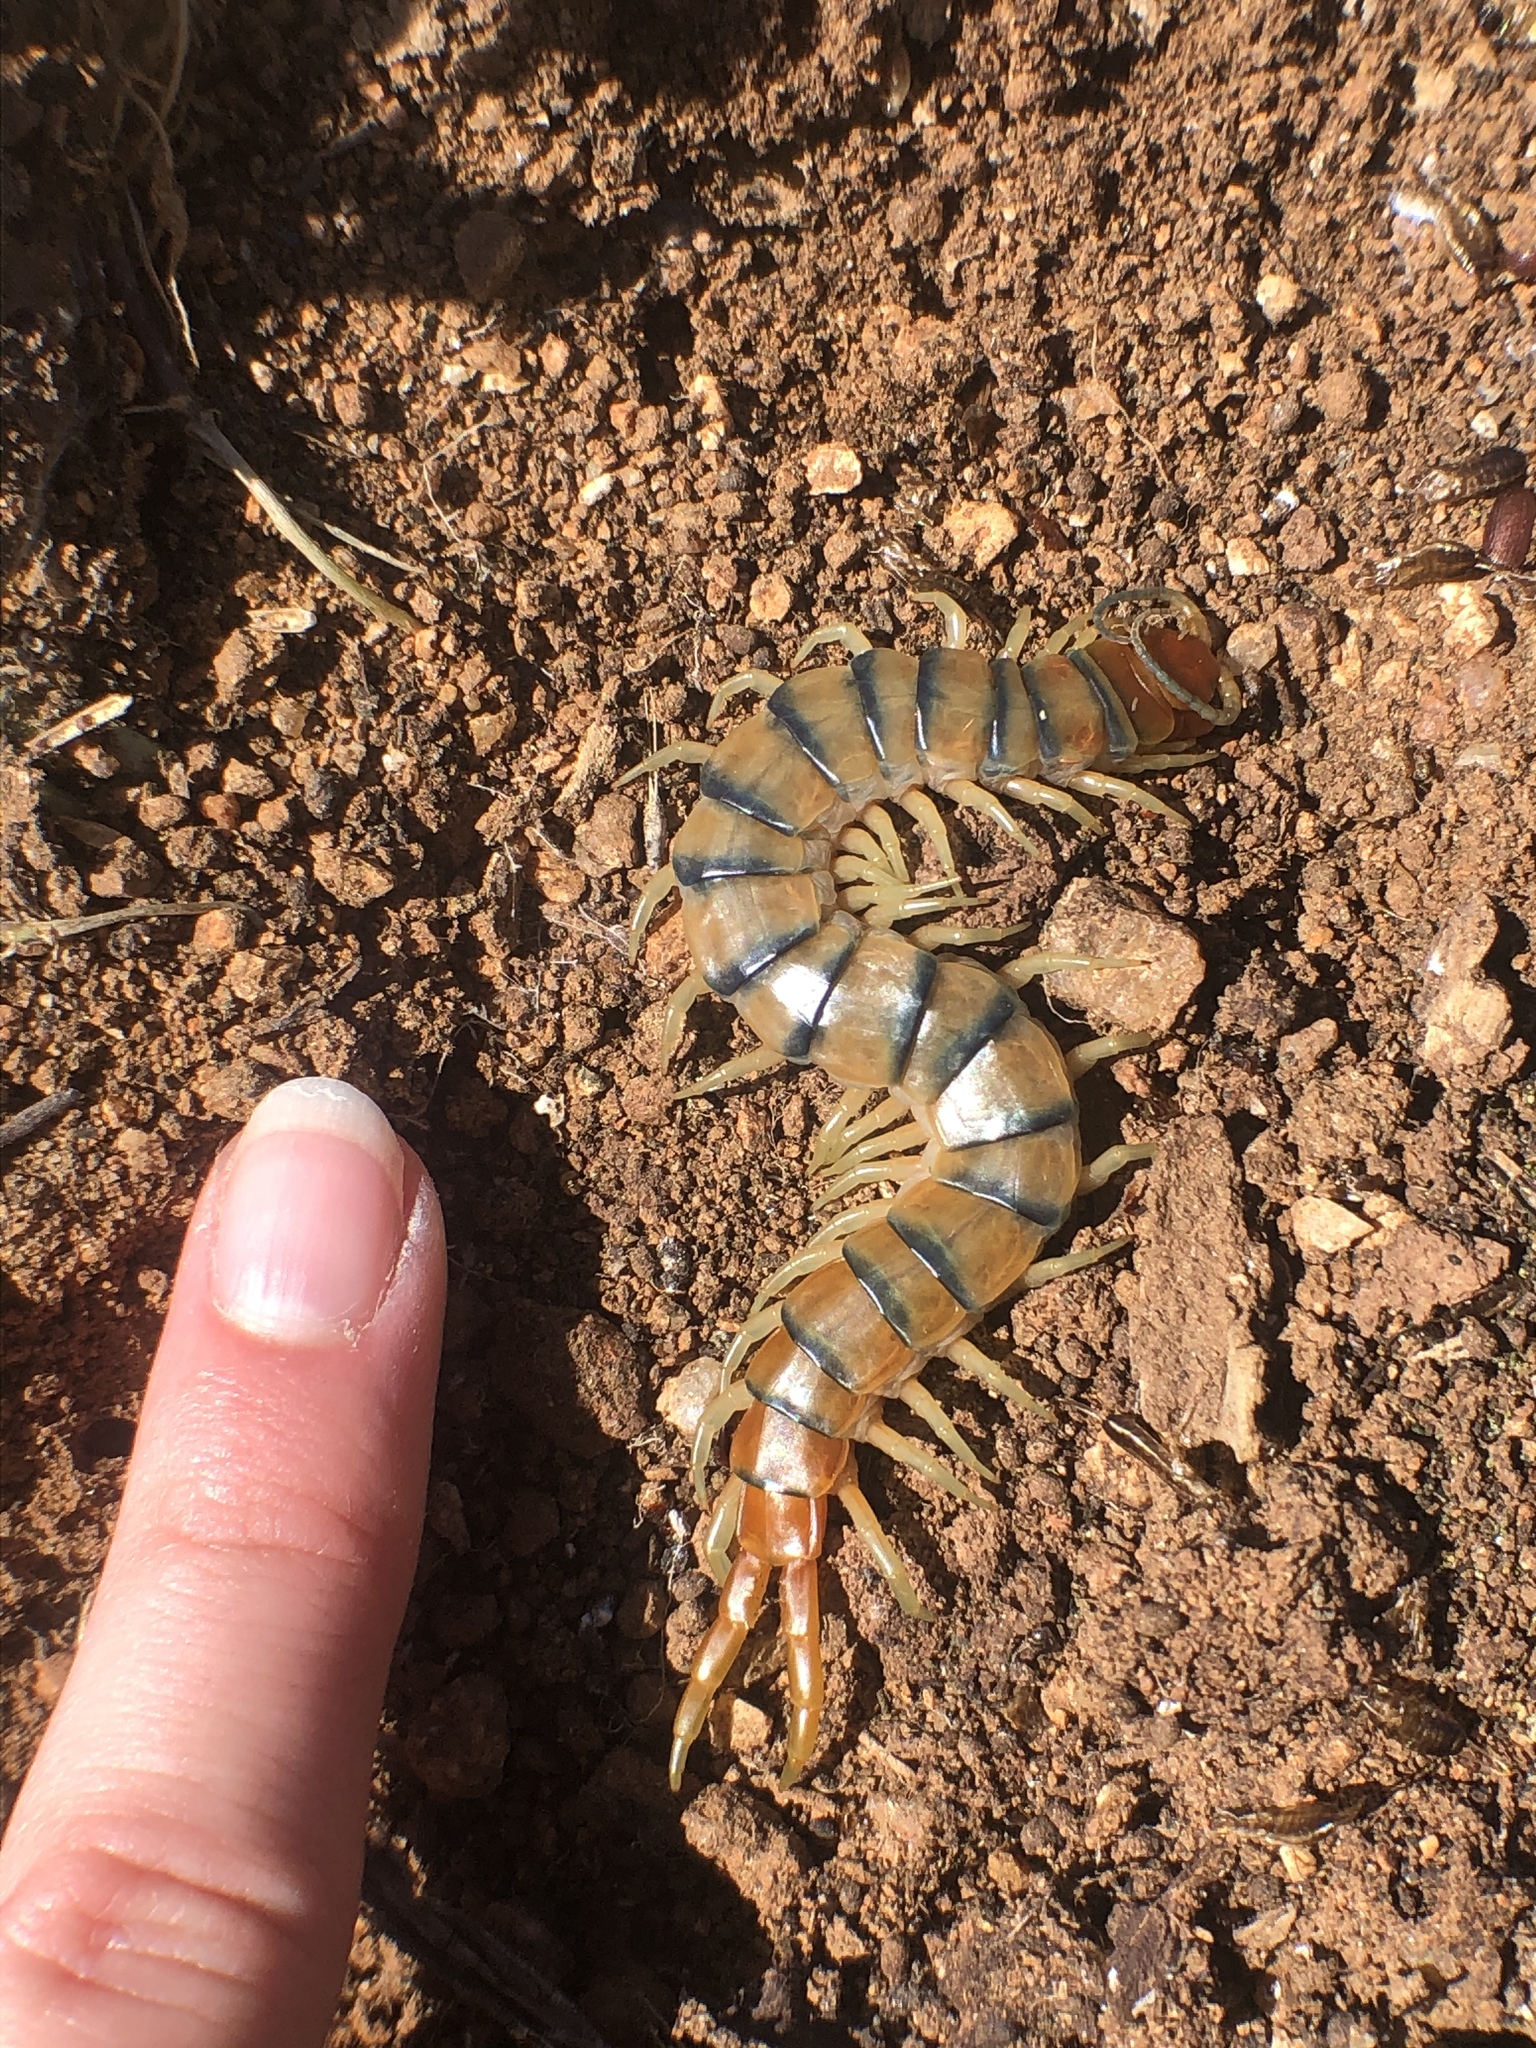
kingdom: Animalia
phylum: Arthropoda
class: Chilopoda
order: Scolopendromorpha
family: Scolopendridae
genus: Scolopendra
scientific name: Scolopendra polymorpha
